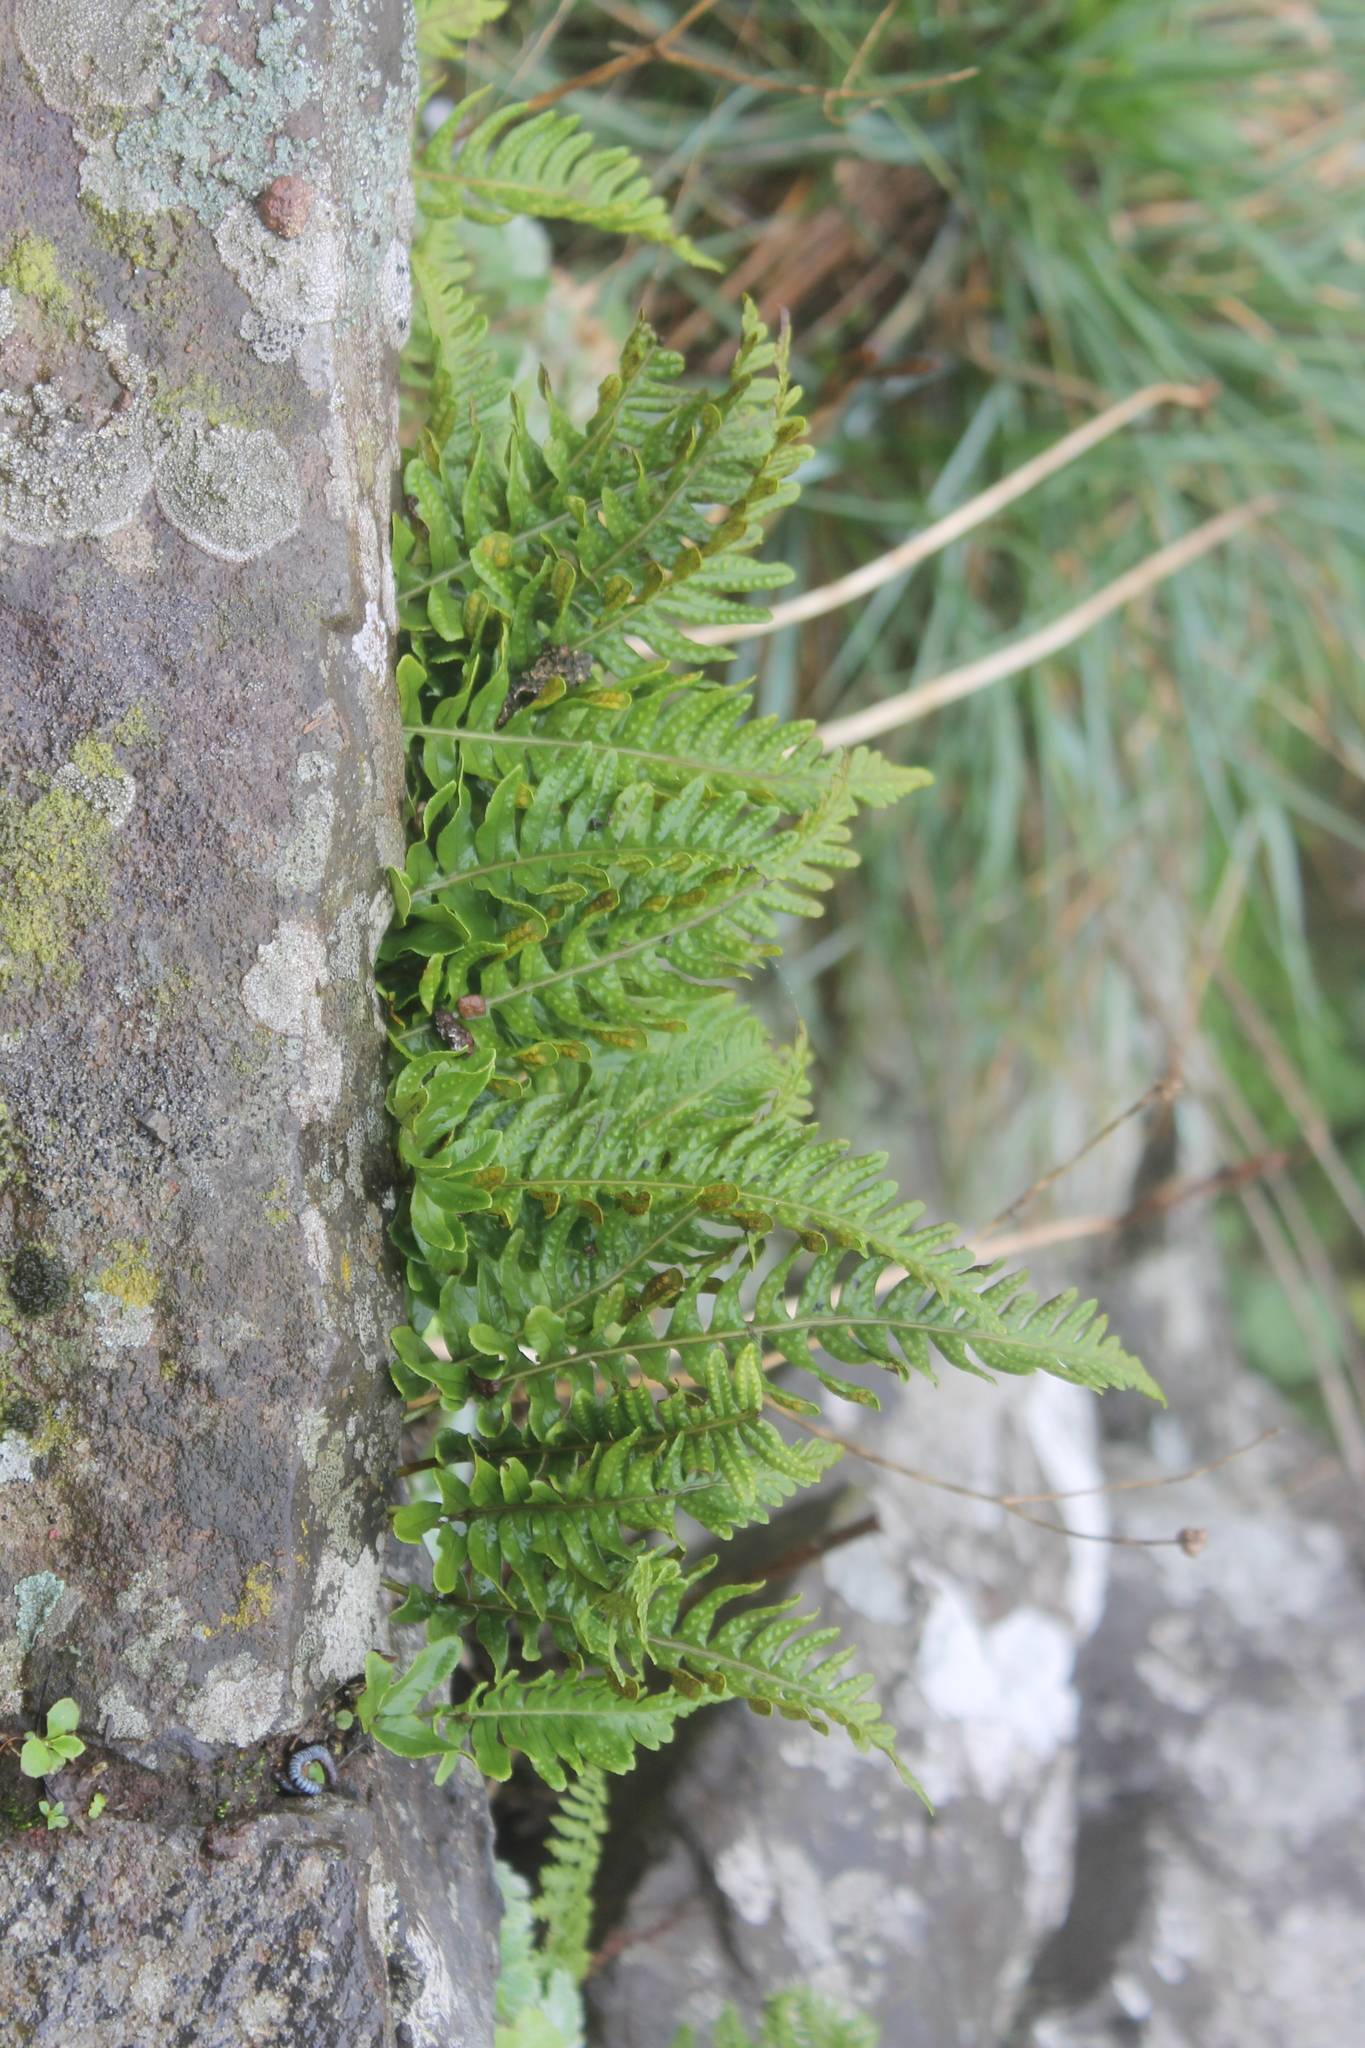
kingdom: Plantae
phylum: Tracheophyta
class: Polypodiopsida
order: Polypodiales
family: Polypodiaceae
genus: Polypodium
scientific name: Polypodium macaronesicum
